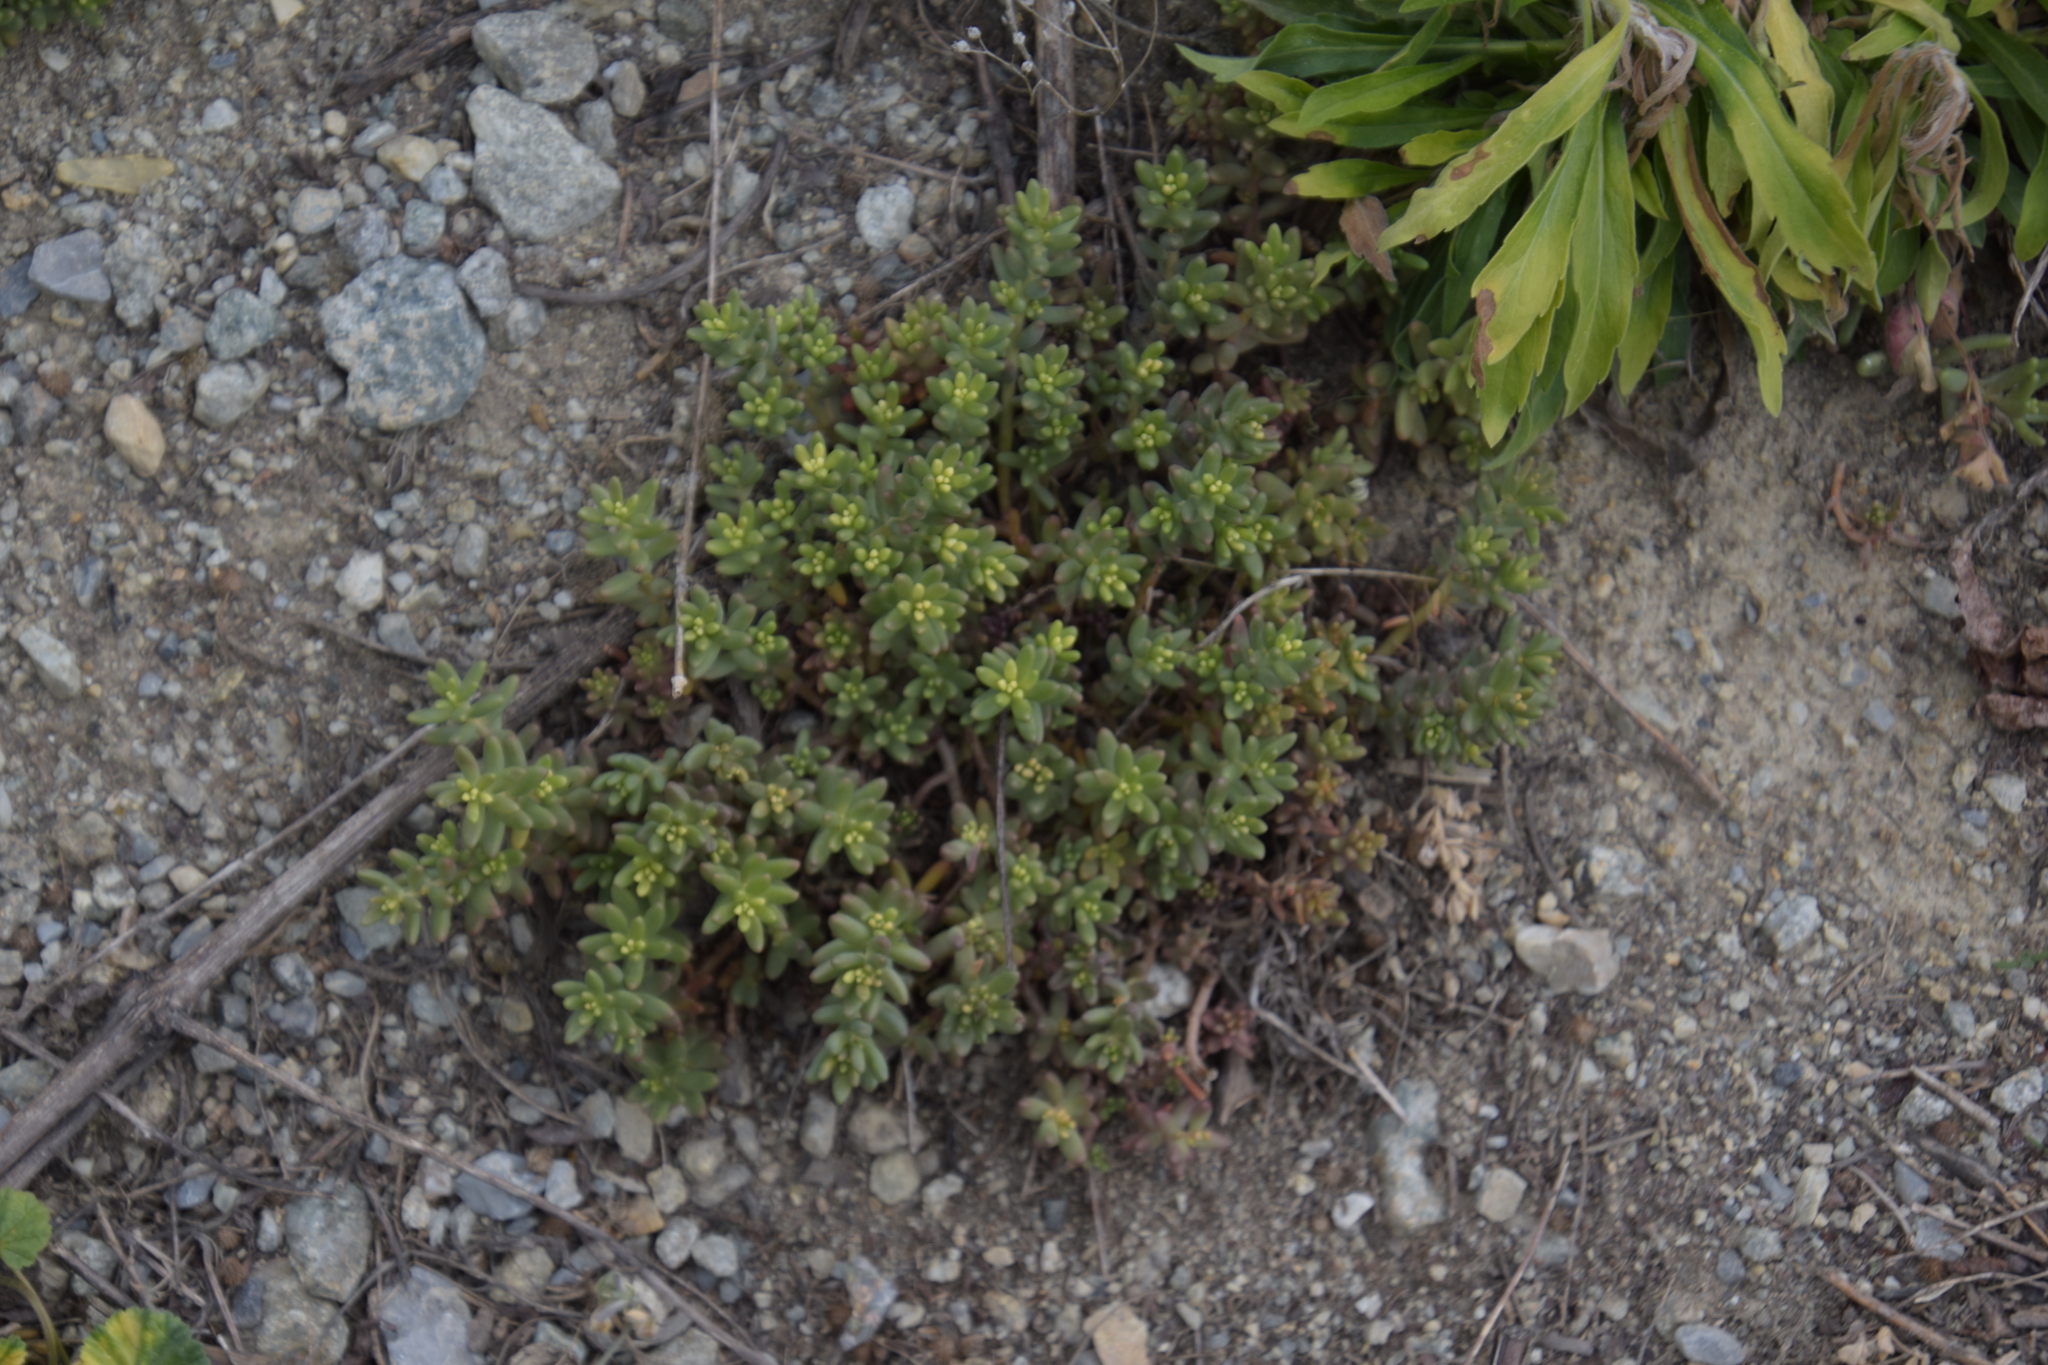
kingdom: Plantae
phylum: Tracheophyta
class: Magnoliopsida
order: Saxifragales
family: Crassulaceae
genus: Sedum
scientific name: Sedum album
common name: White stonecrop
